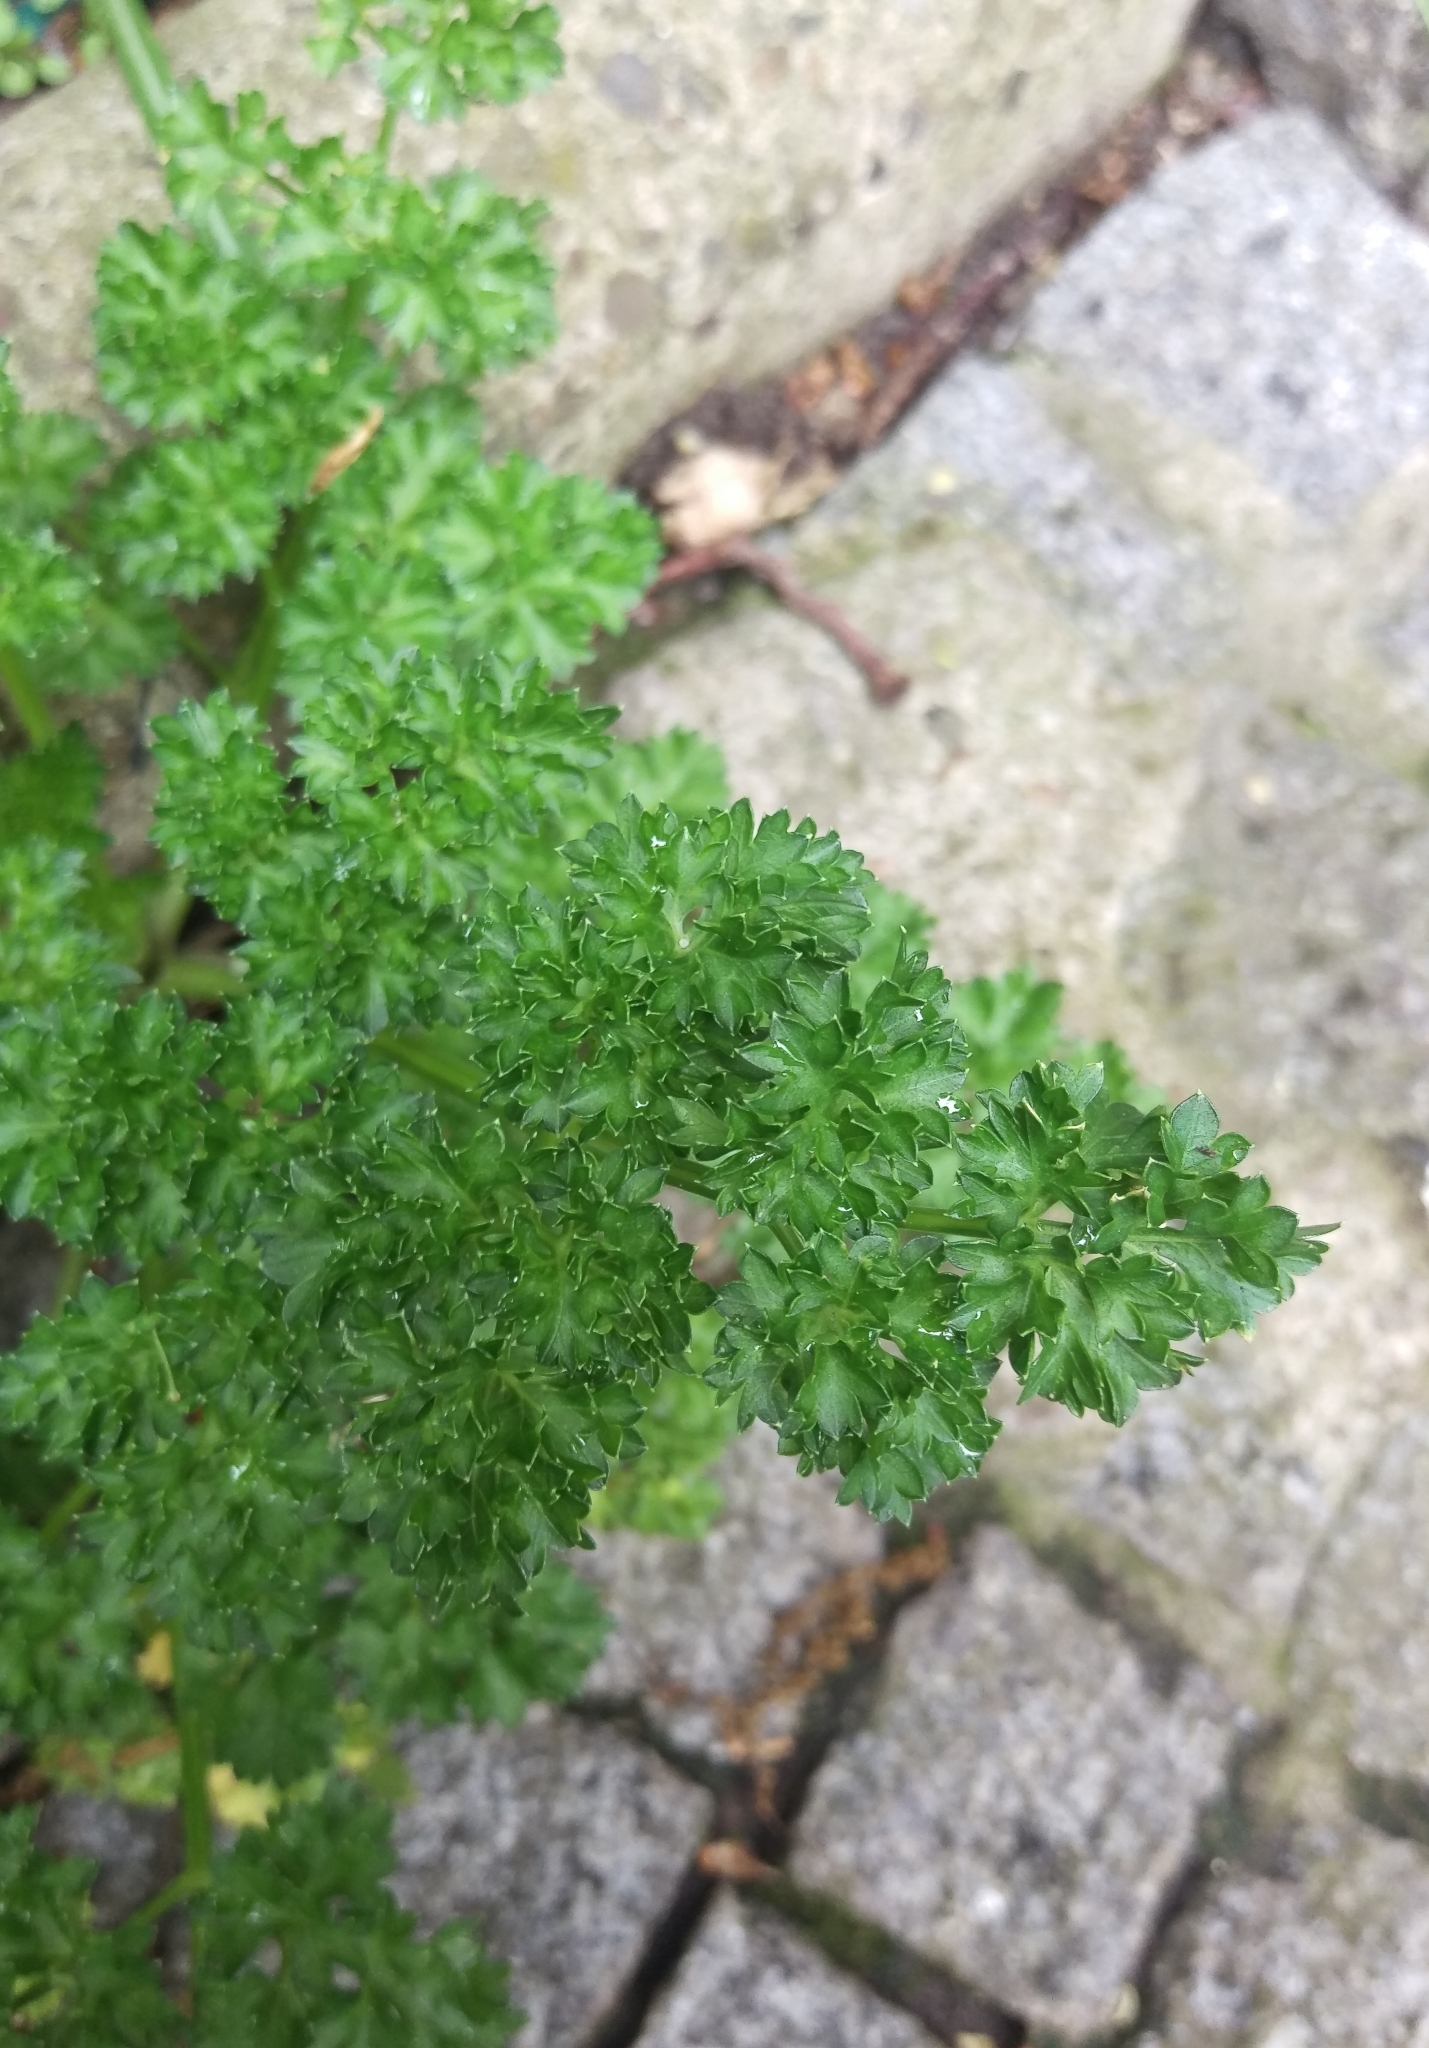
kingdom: Plantae
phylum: Tracheophyta
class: Magnoliopsida
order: Apiales
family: Apiaceae
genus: Petroselinum
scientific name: Petroselinum crispum
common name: Parsley
